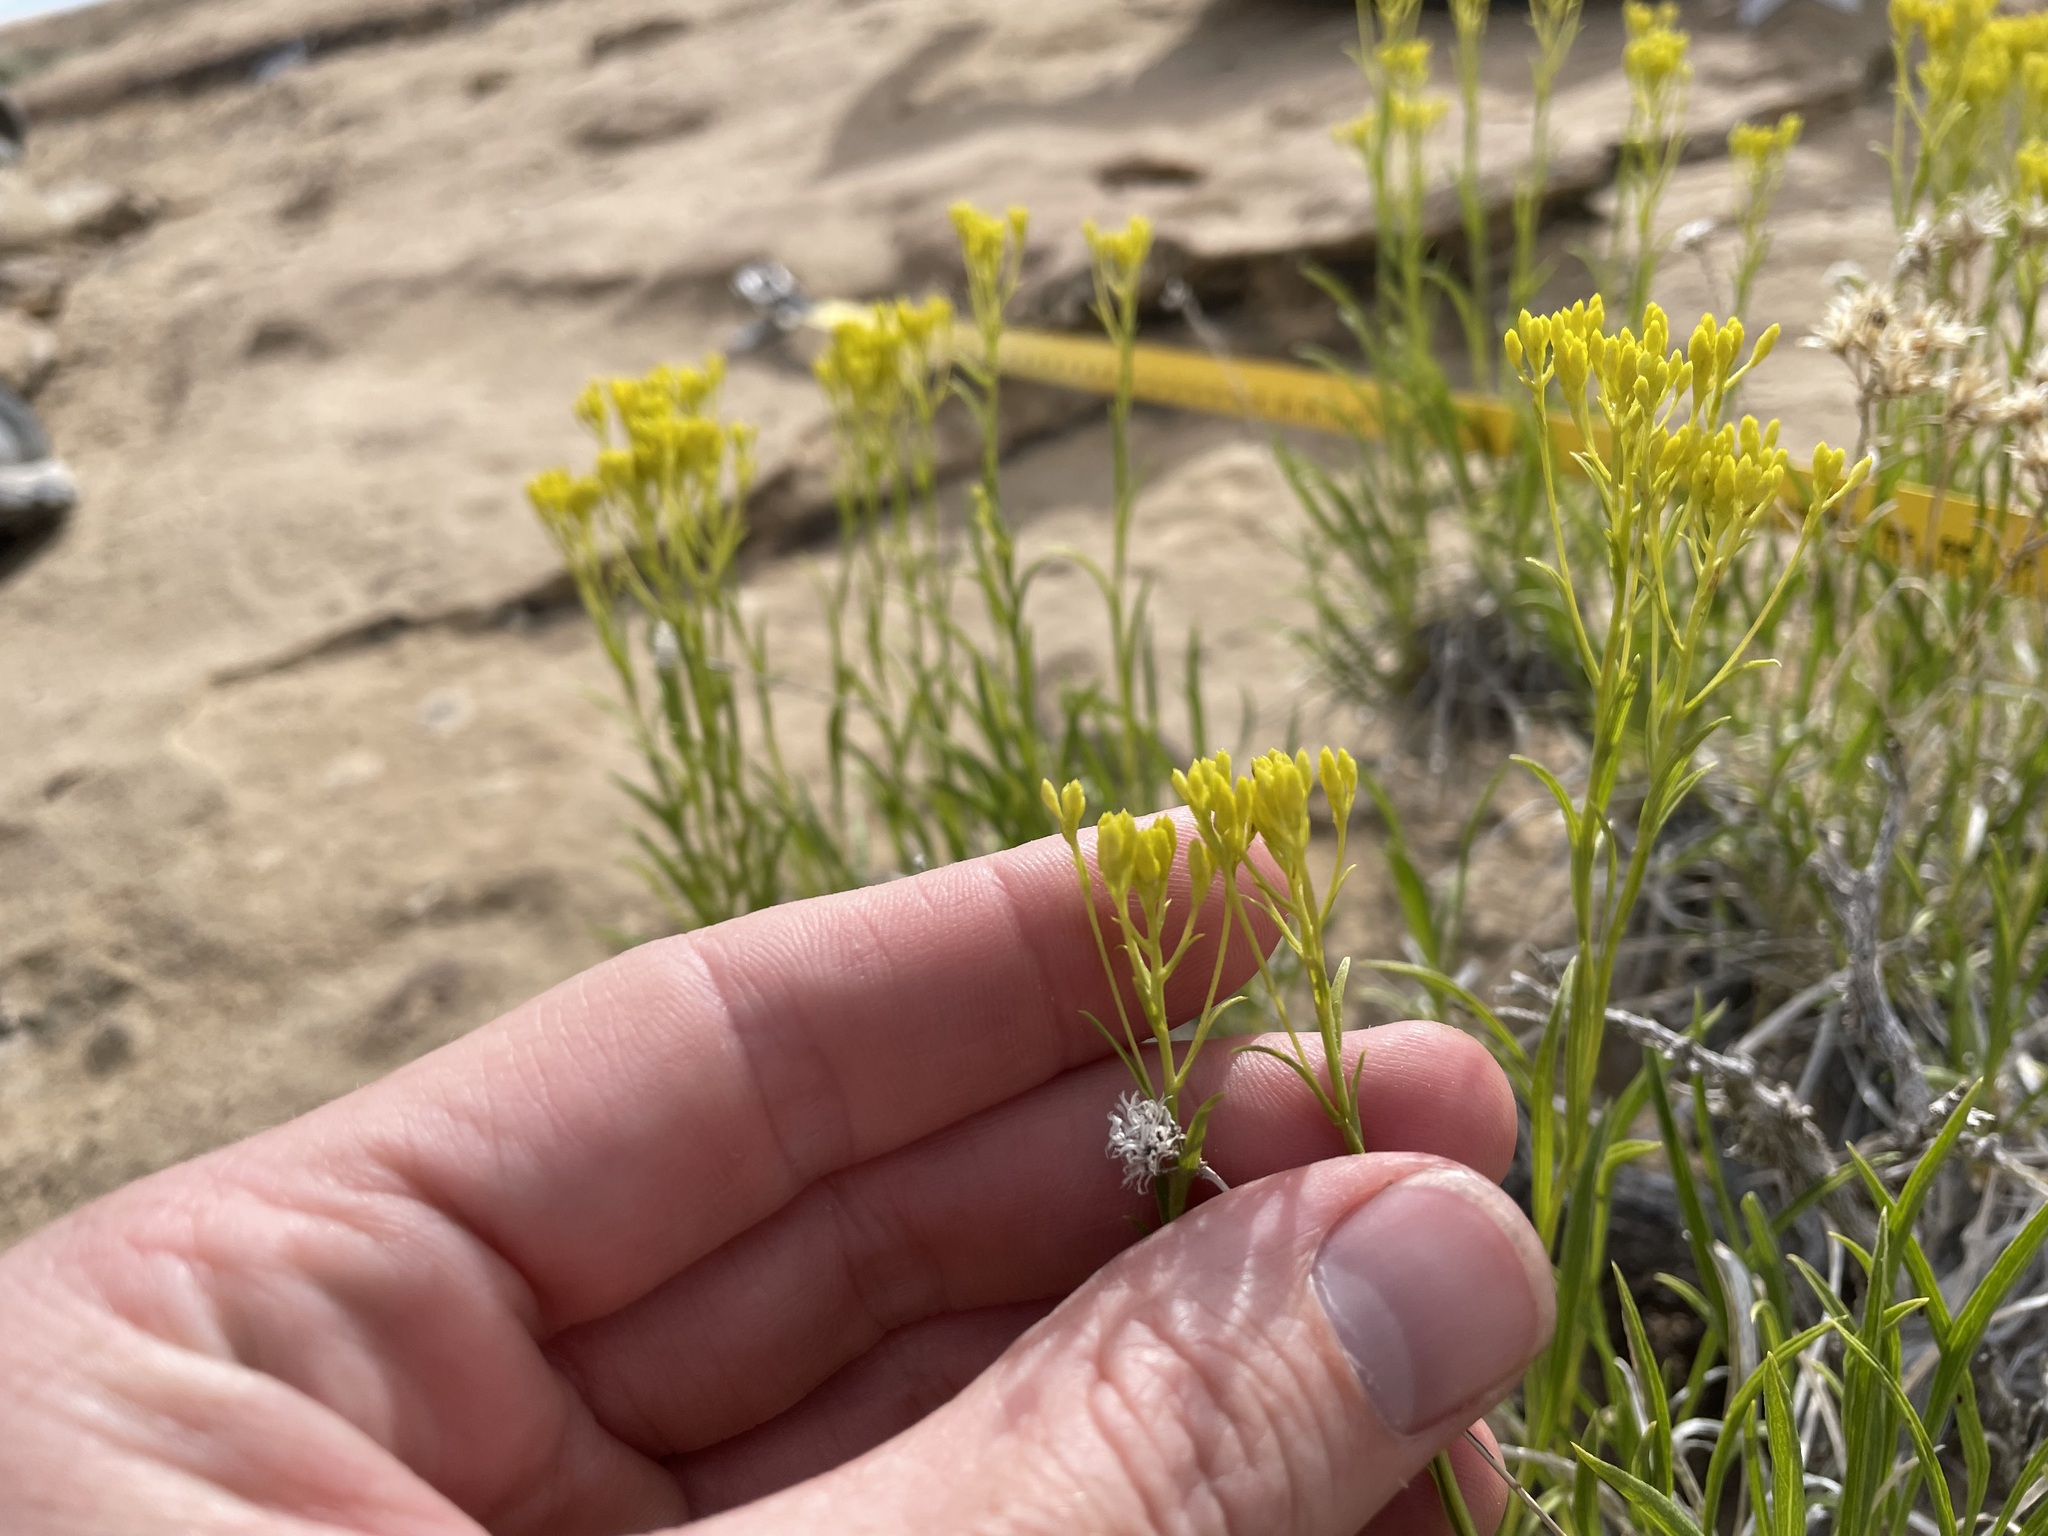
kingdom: Plantae
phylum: Tracheophyta
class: Magnoliopsida
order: Asterales
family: Asteraceae
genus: Petradoria
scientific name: Petradoria pumila
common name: Rock-goldenrod
